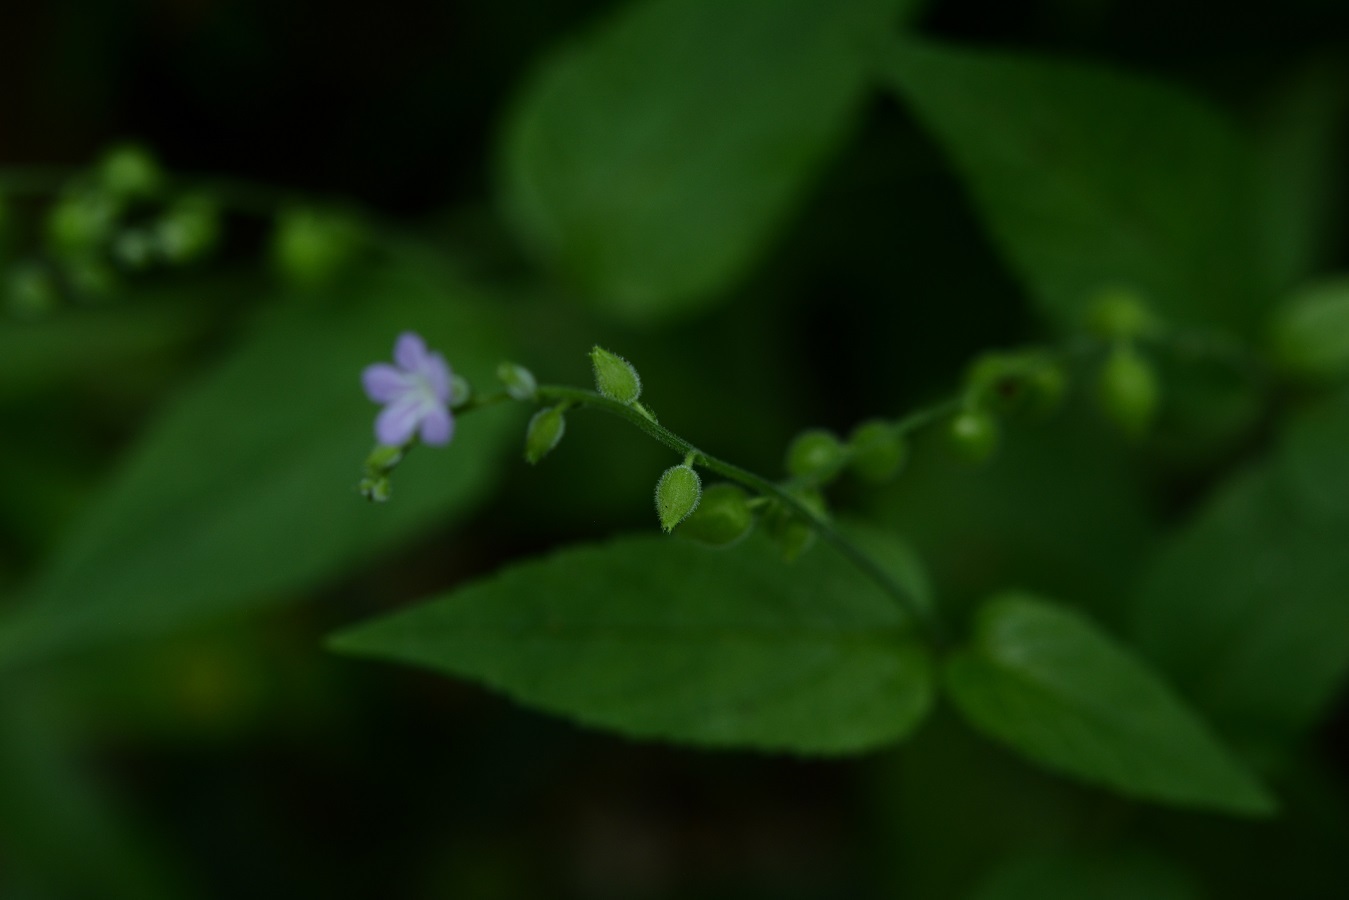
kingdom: Plantae
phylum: Tracheophyta
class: Magnoliopsida
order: Lamiales
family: Verbenaceae
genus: Priva
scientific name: Priva lappulacea
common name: Fasten-'pon-coat
